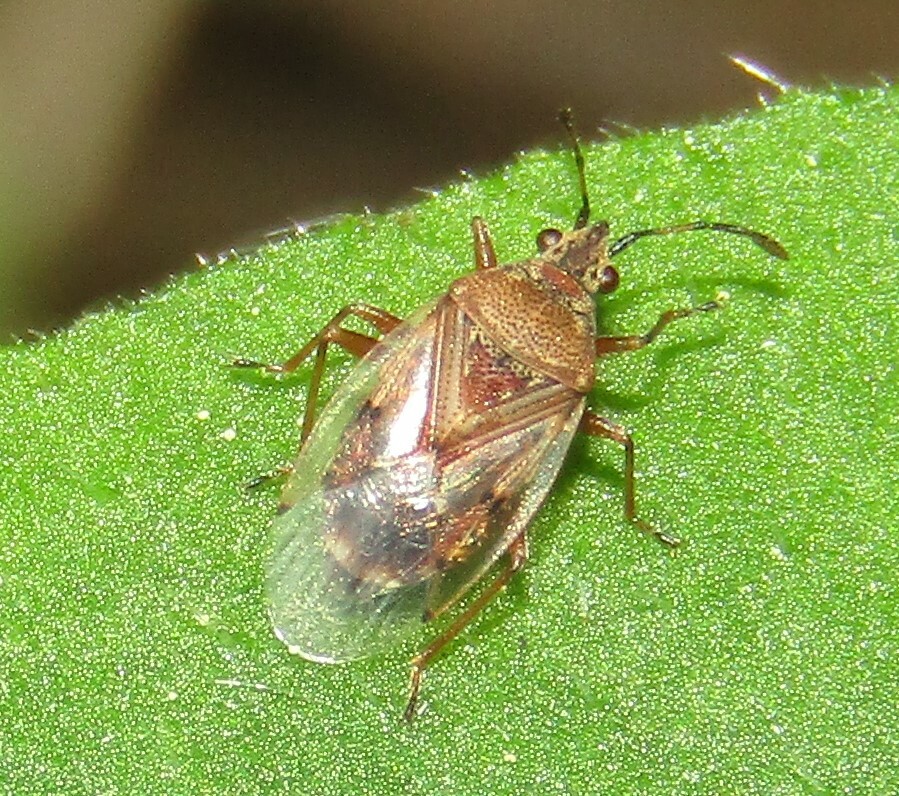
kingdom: Animalia
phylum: Arthropoda
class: Insecta
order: Hemiptera
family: Lygaeidae
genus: Kleidocerys
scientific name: Kleidocerys resedae
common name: Birch catkin bug
